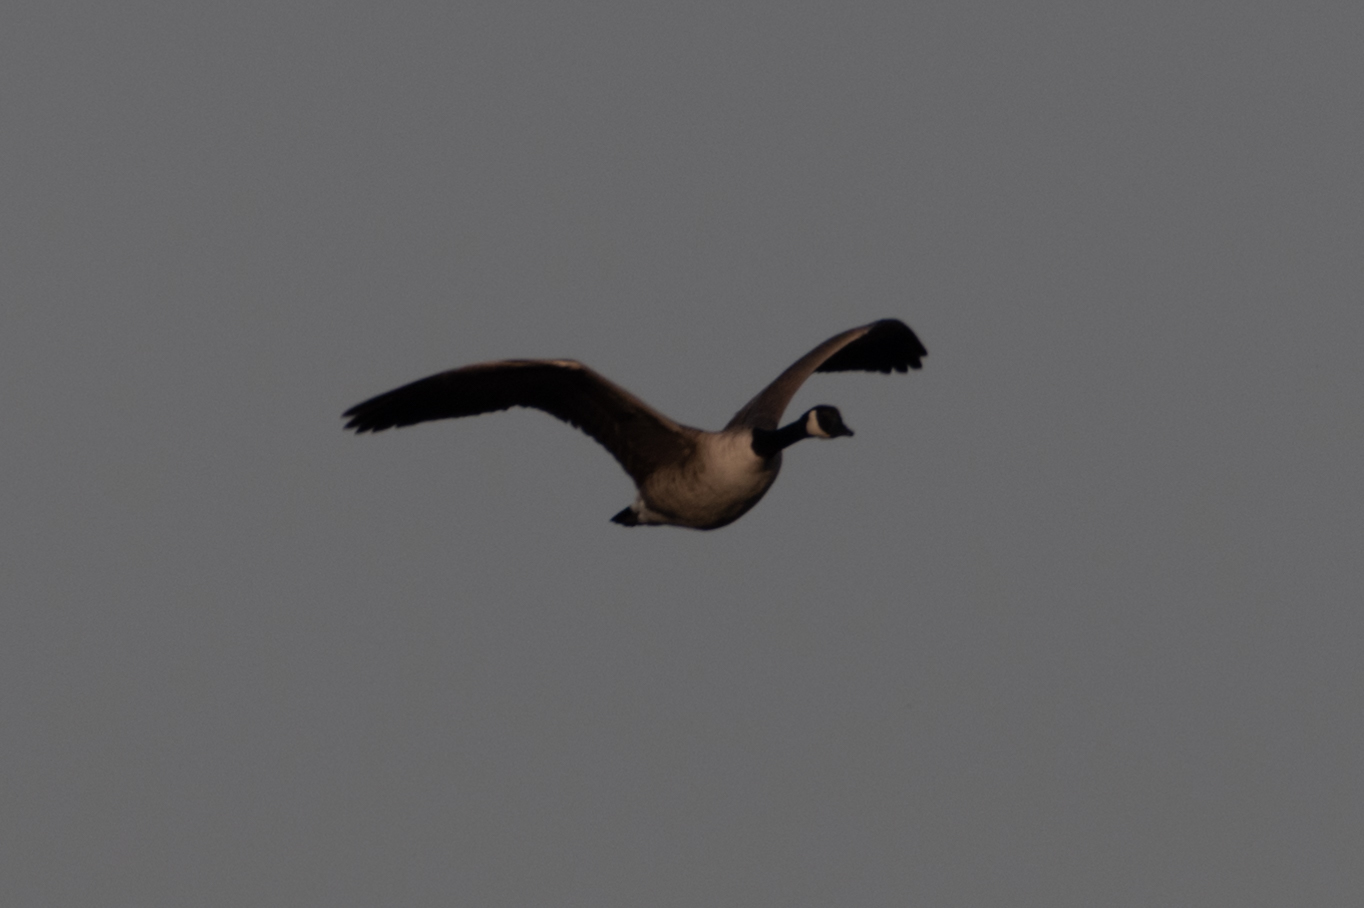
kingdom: Animalia
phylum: Chordata
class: Aves
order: Anseriformes
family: Anatidae
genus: Branta
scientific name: Branta canadensis
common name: Canada goose
